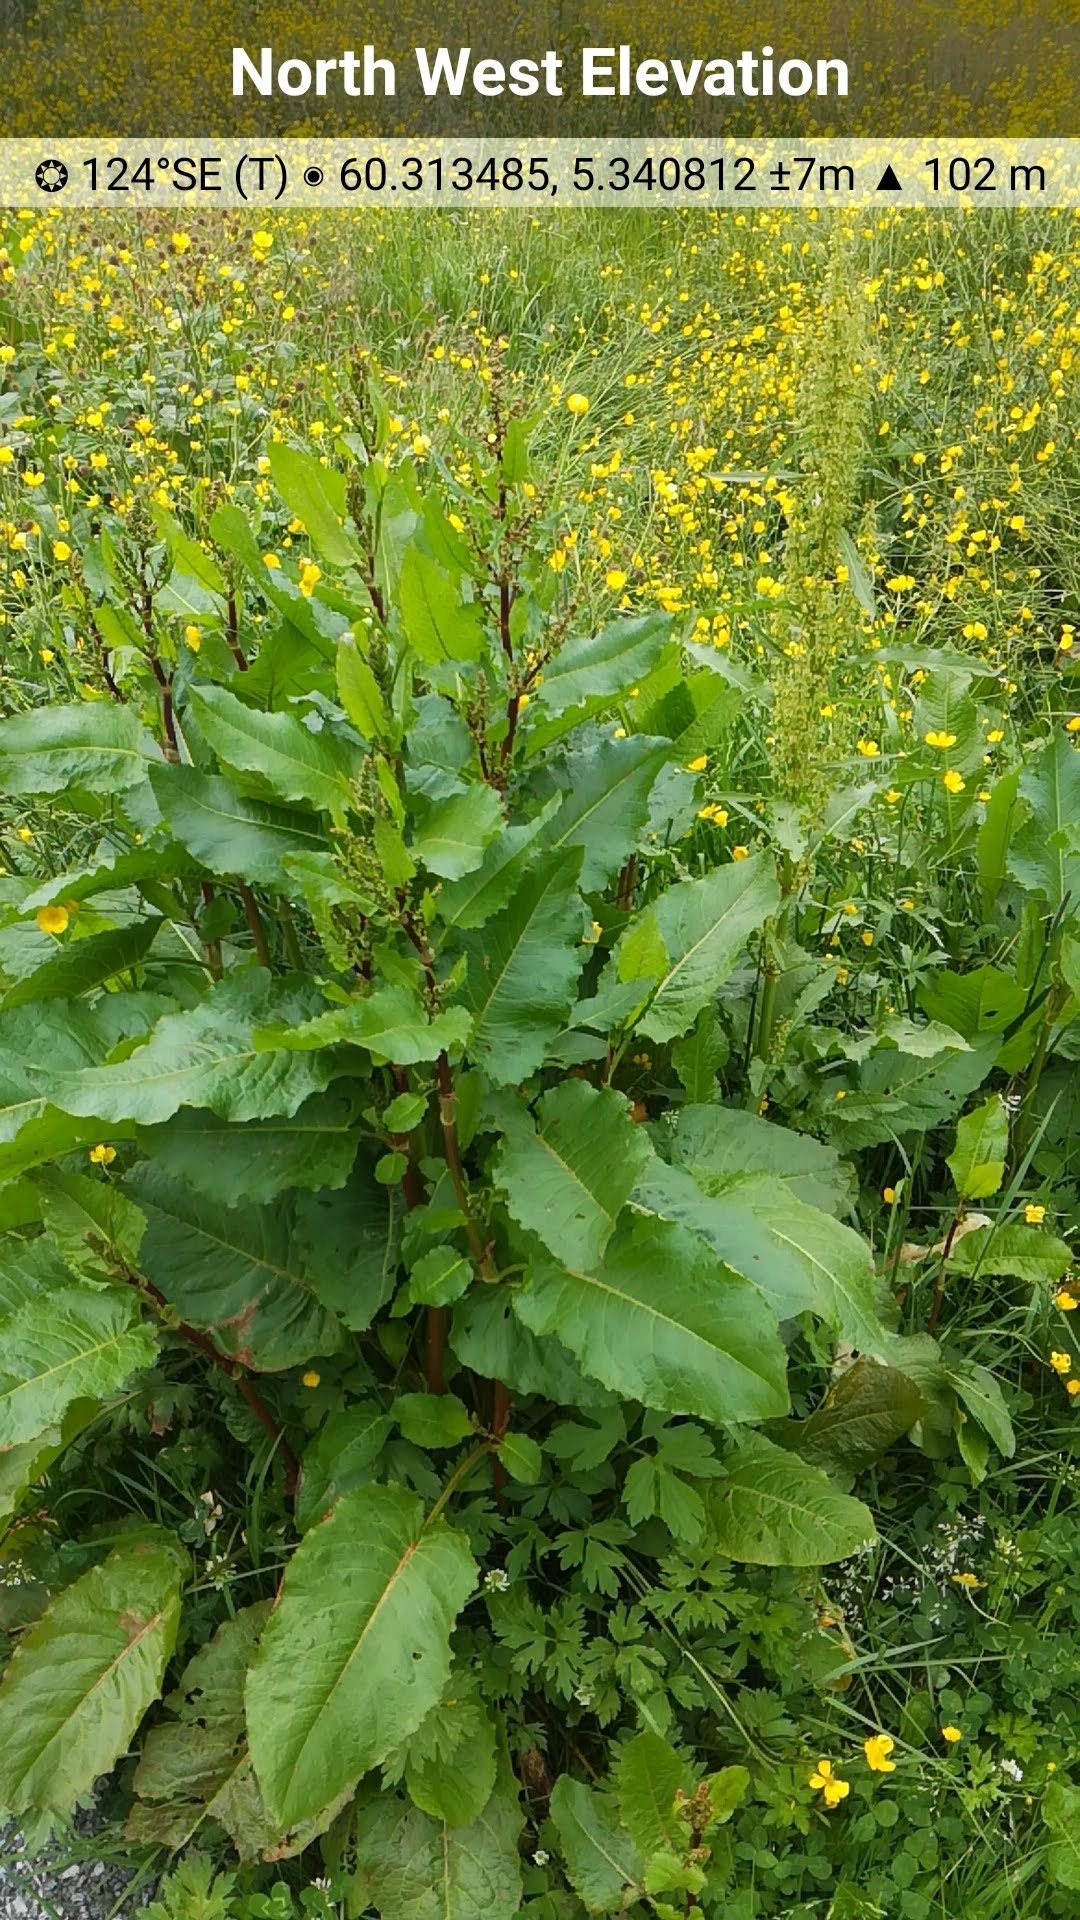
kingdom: Plantae
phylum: Tracheophyta
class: Magnoliopsida
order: Caryophyllales
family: Polygonaceae
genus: Rumex
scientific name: Rumex obtusifolius
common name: Bitter dock
